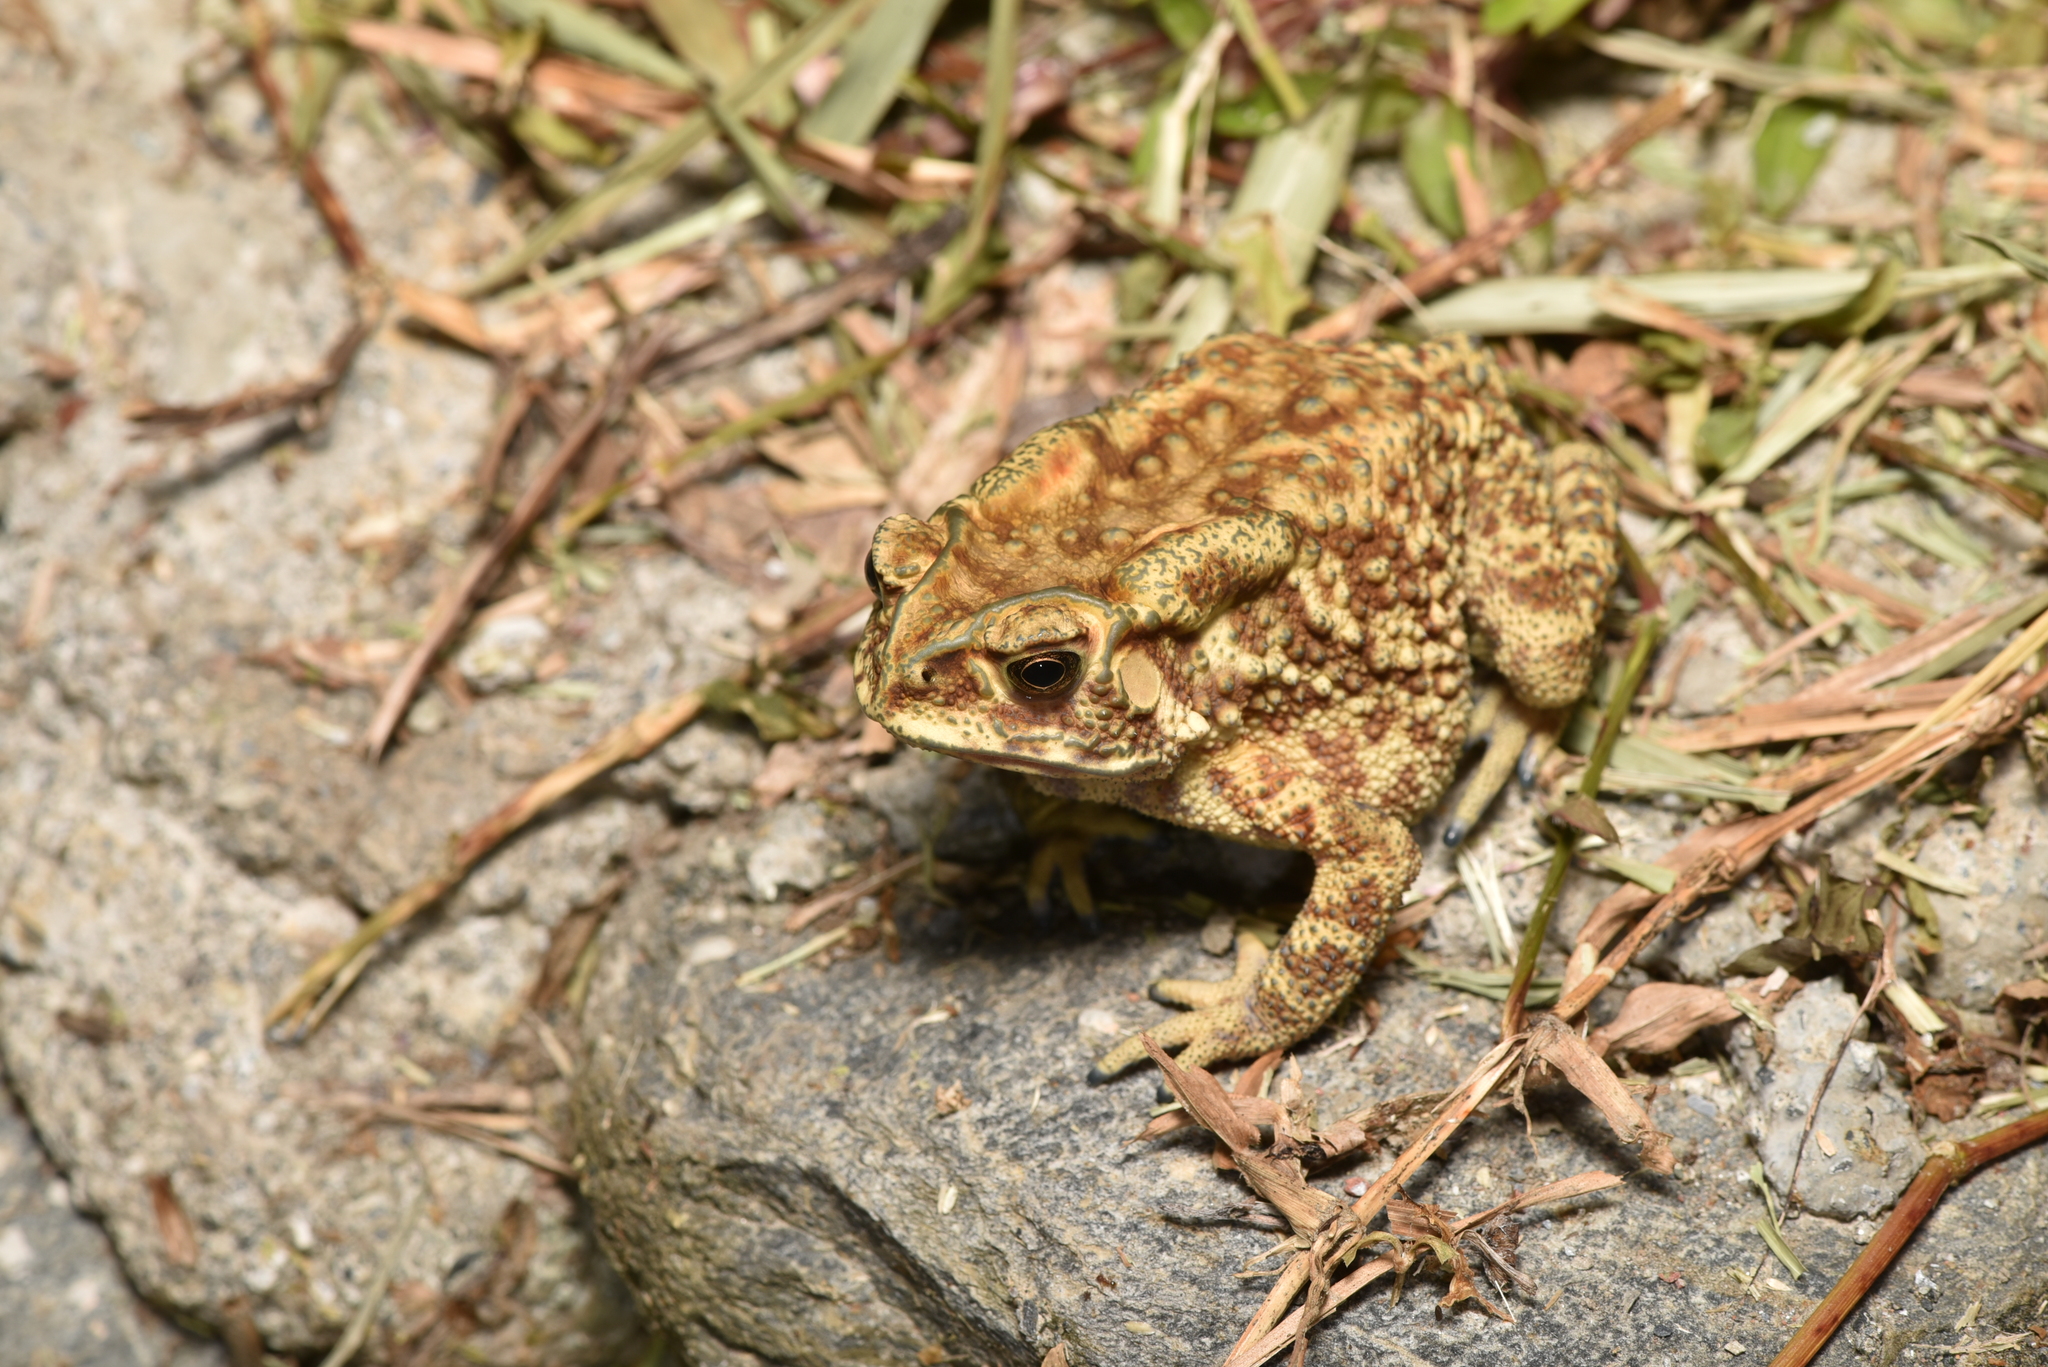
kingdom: Animalia
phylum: Chordata
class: Amphibia
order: Anura
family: Bufonidae
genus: Duttaphrynus
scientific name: Duttaphrynus melanostictus
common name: Common sunda toad
